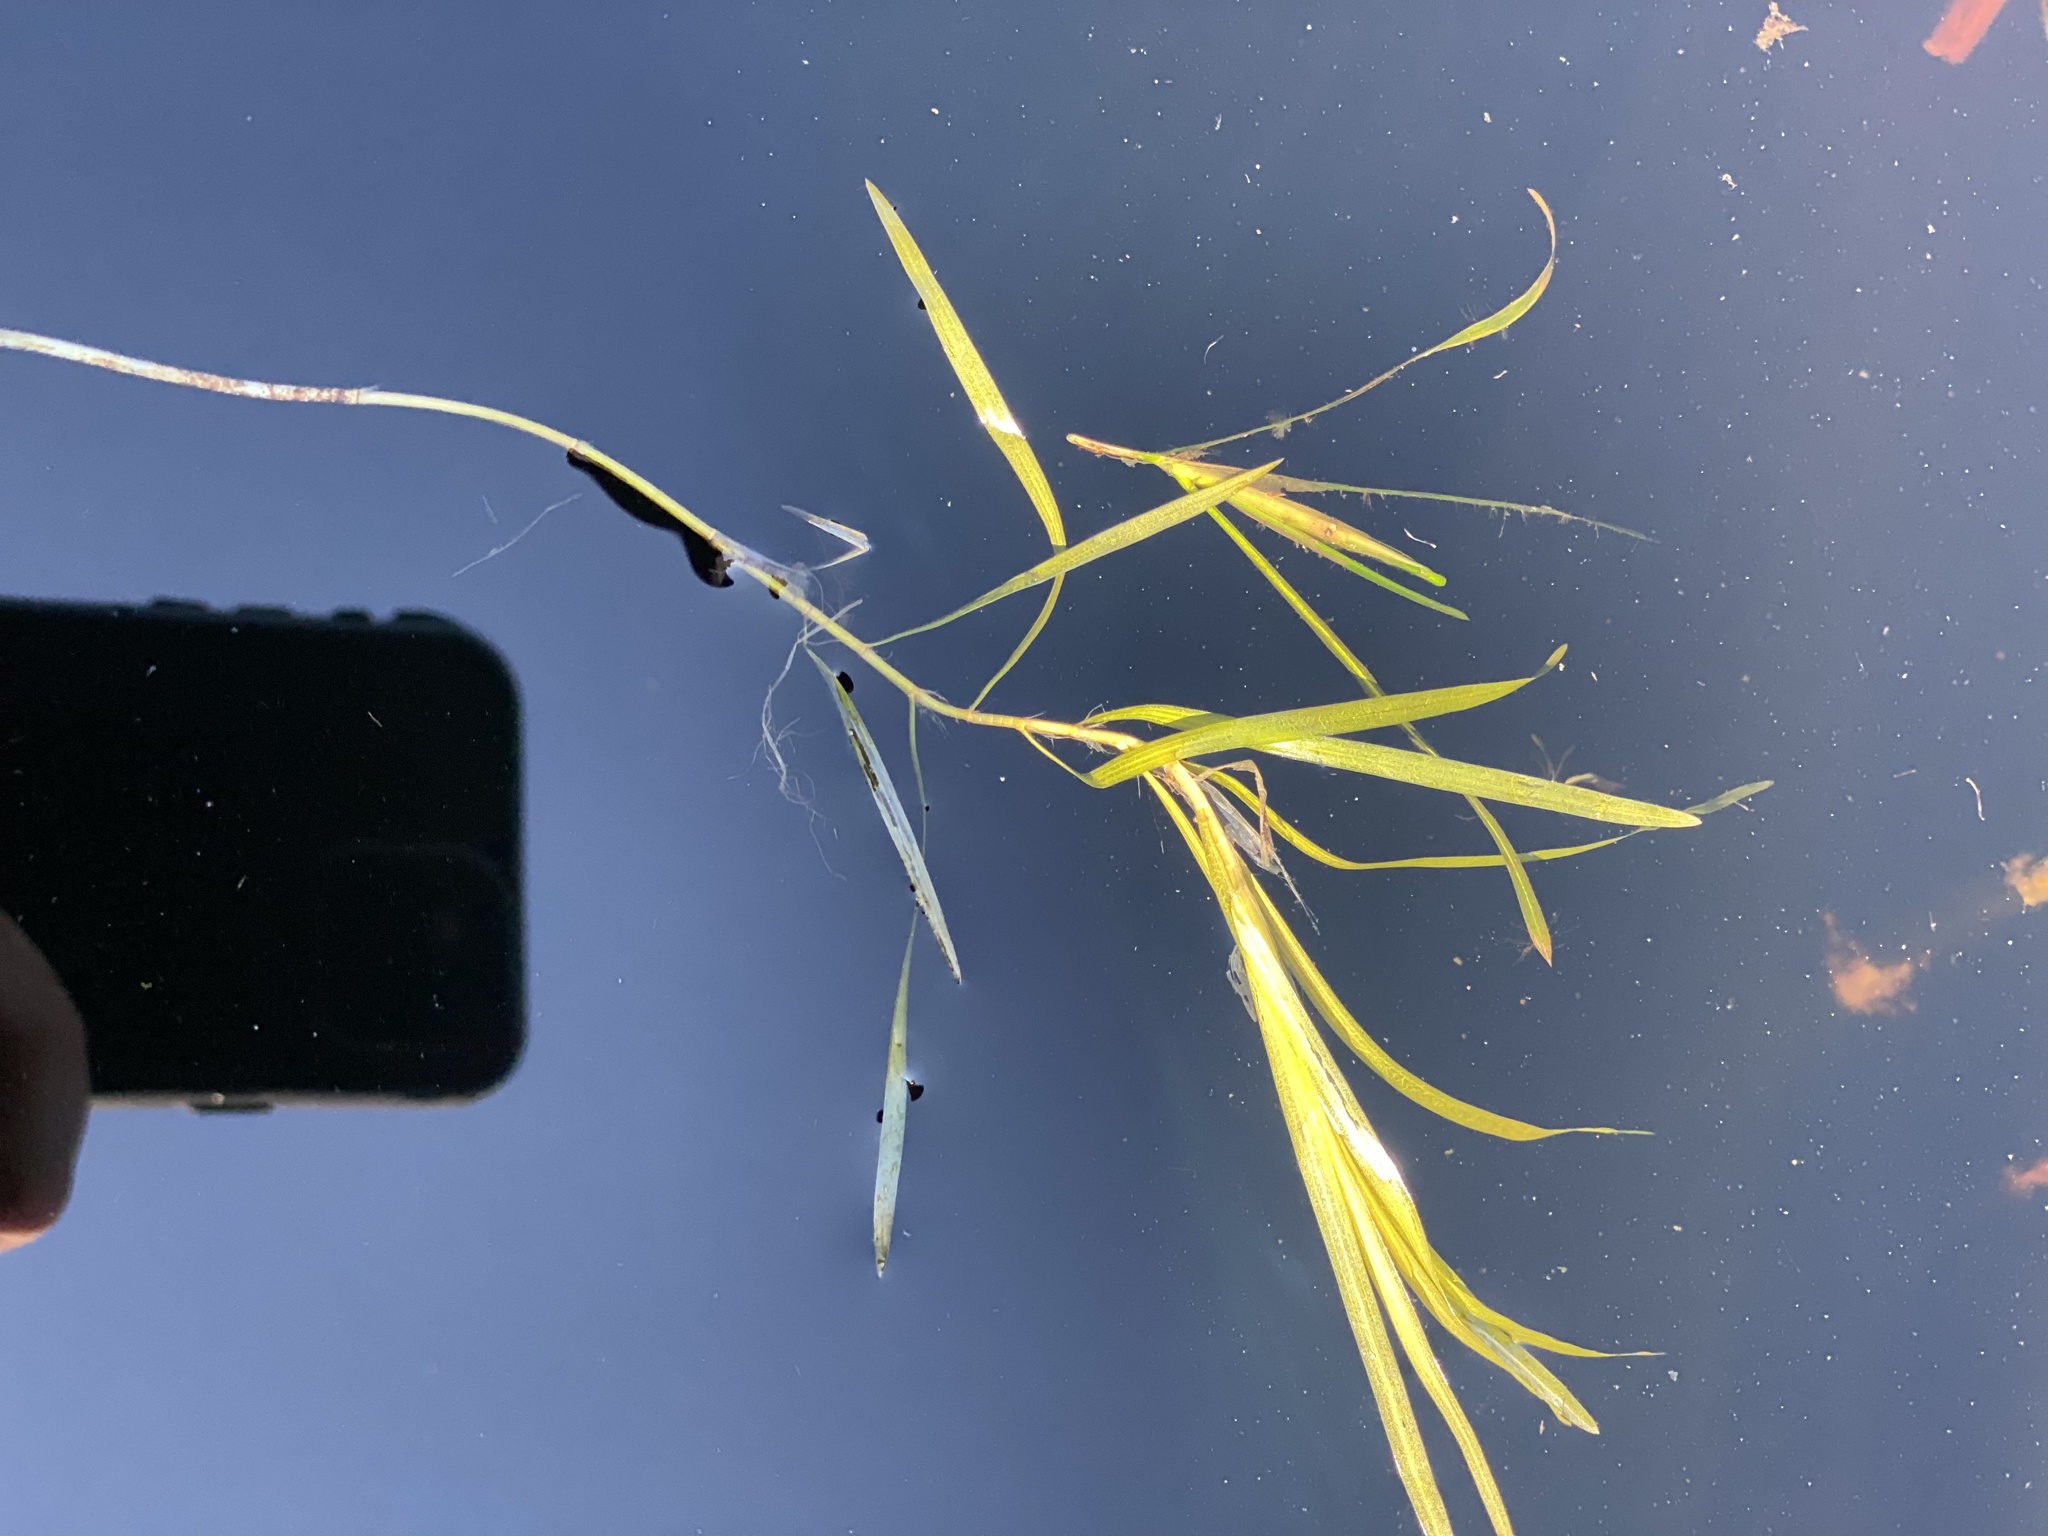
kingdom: Plantae
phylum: Tracheophyta
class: Liliopsida
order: Alismatales
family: Potamogetonaceae
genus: Potamogeton
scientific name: Potamogeton epihydrus
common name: American pondweed
